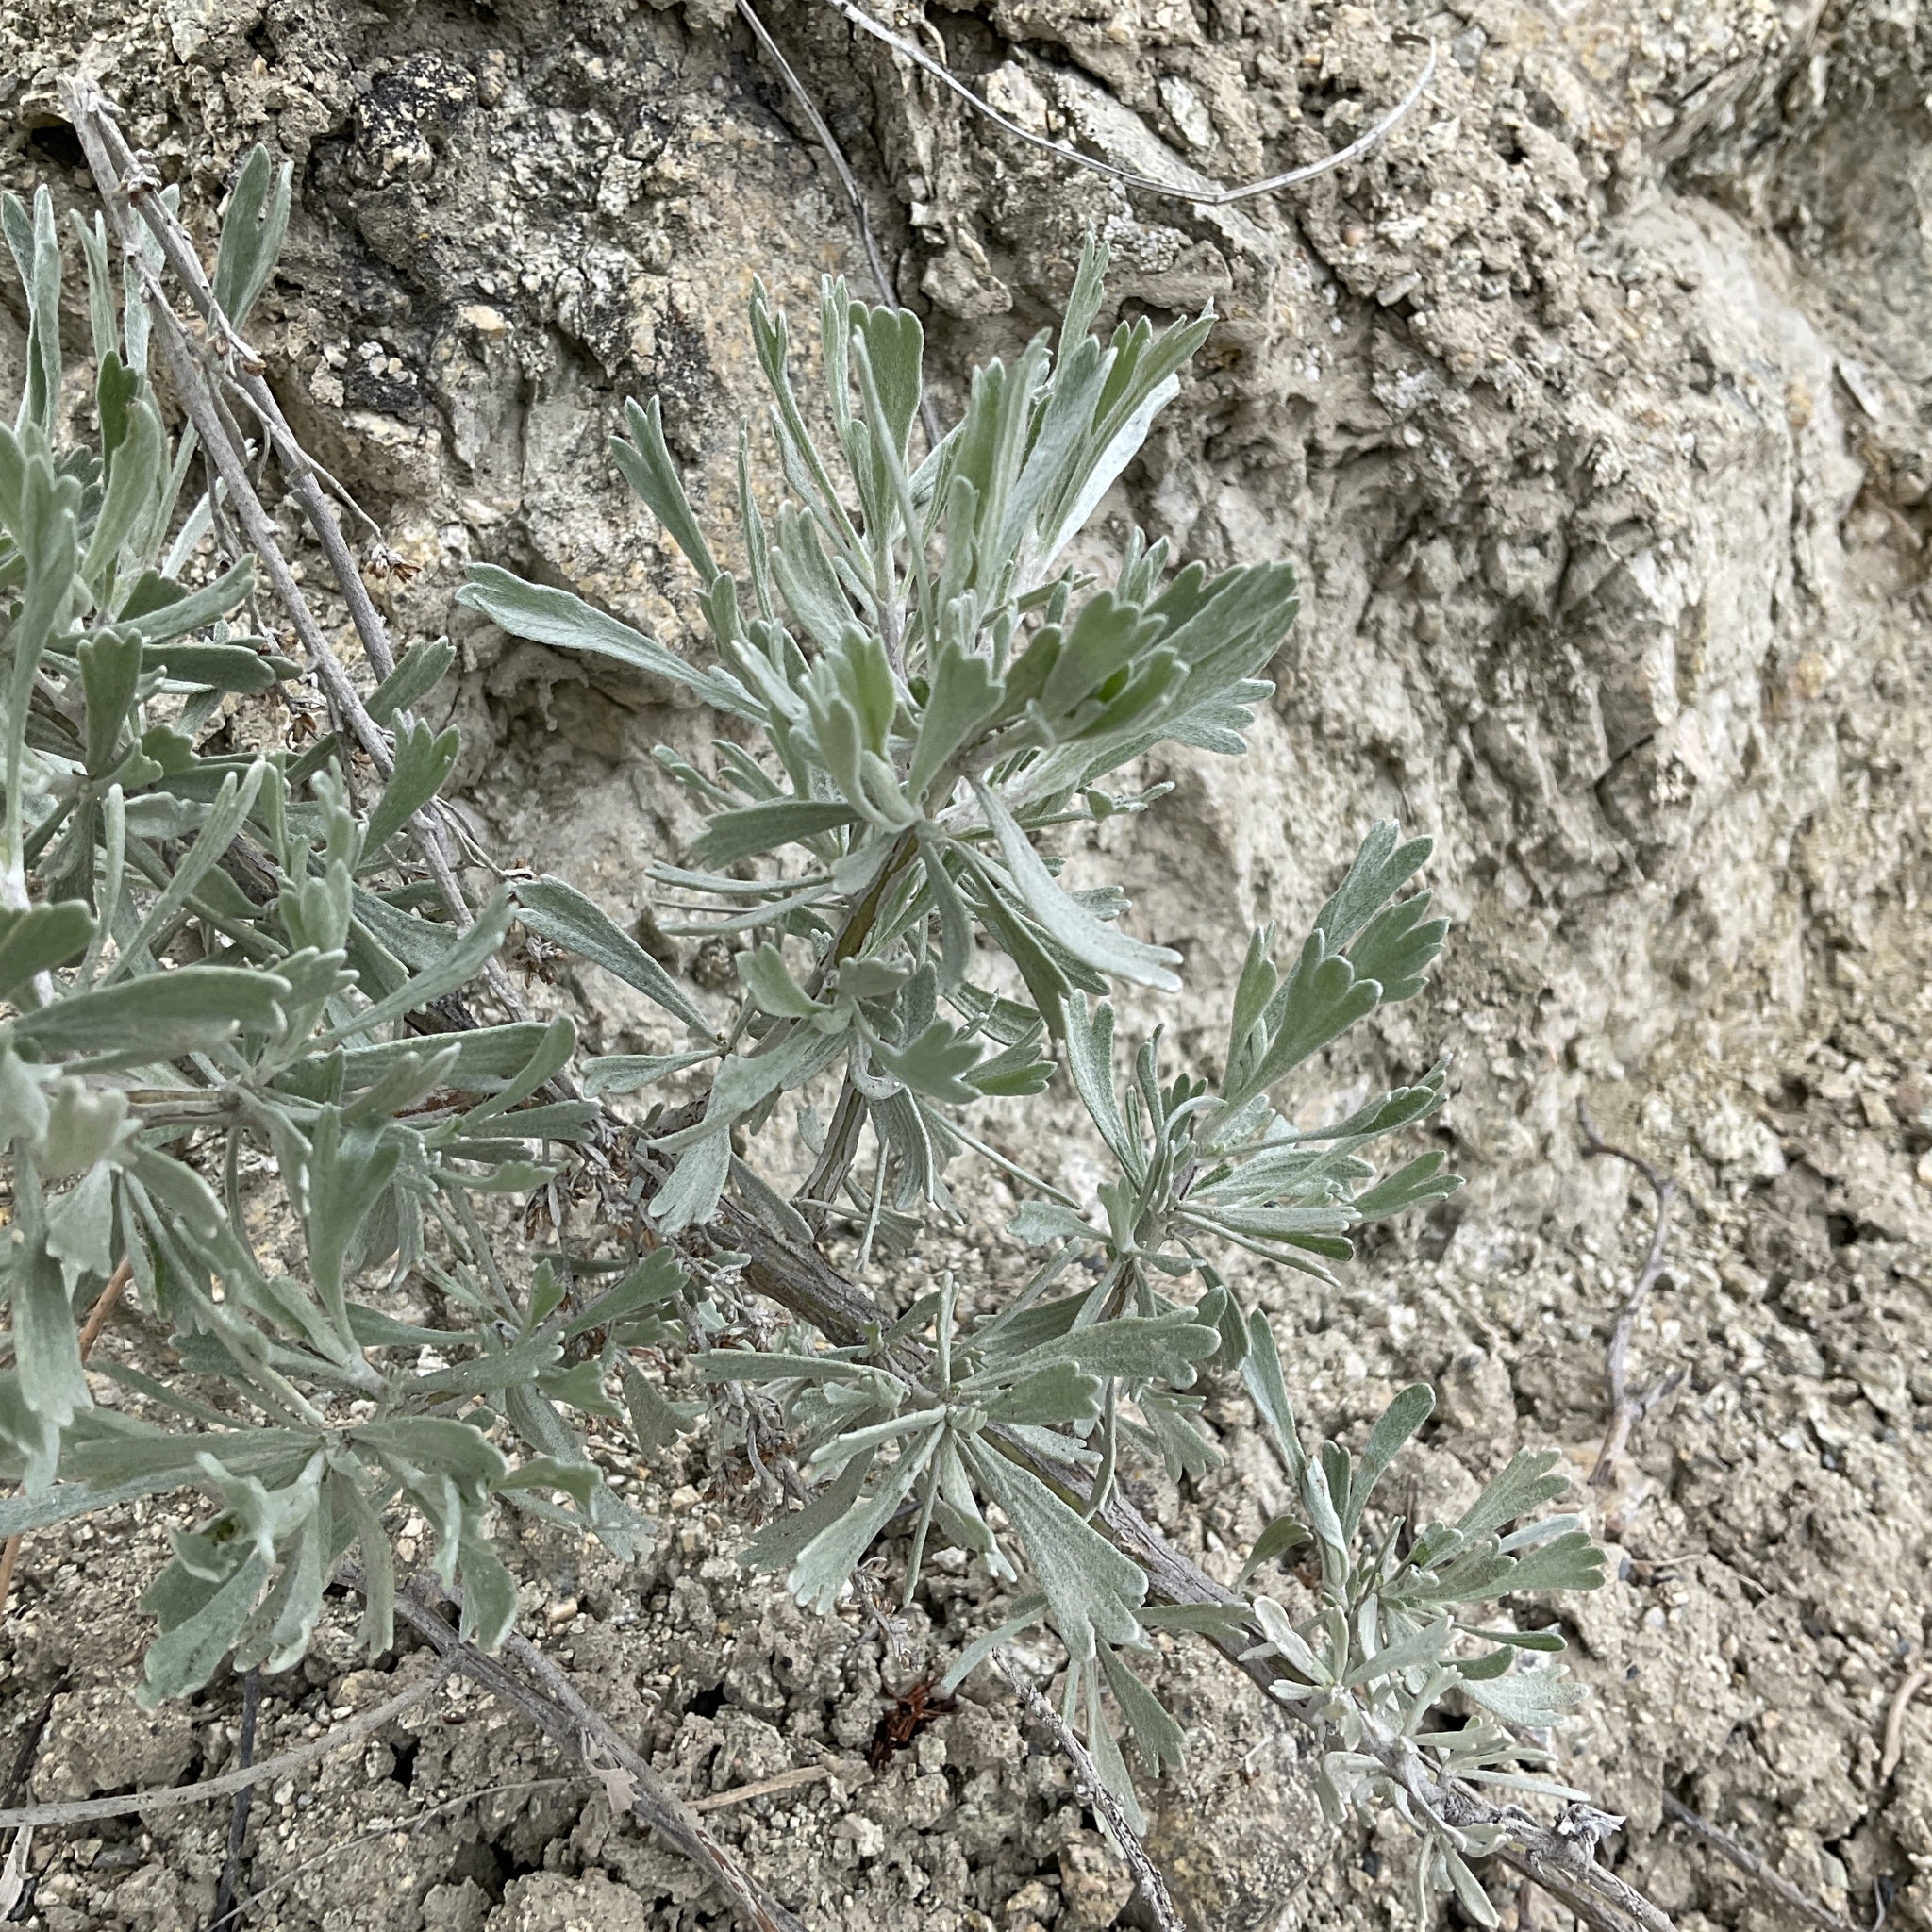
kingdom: Plantae
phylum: Tracheophyta
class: Magnoliopsida
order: Asterales
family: Asteraceae
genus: Artemisia
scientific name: Artemisia tridentata
